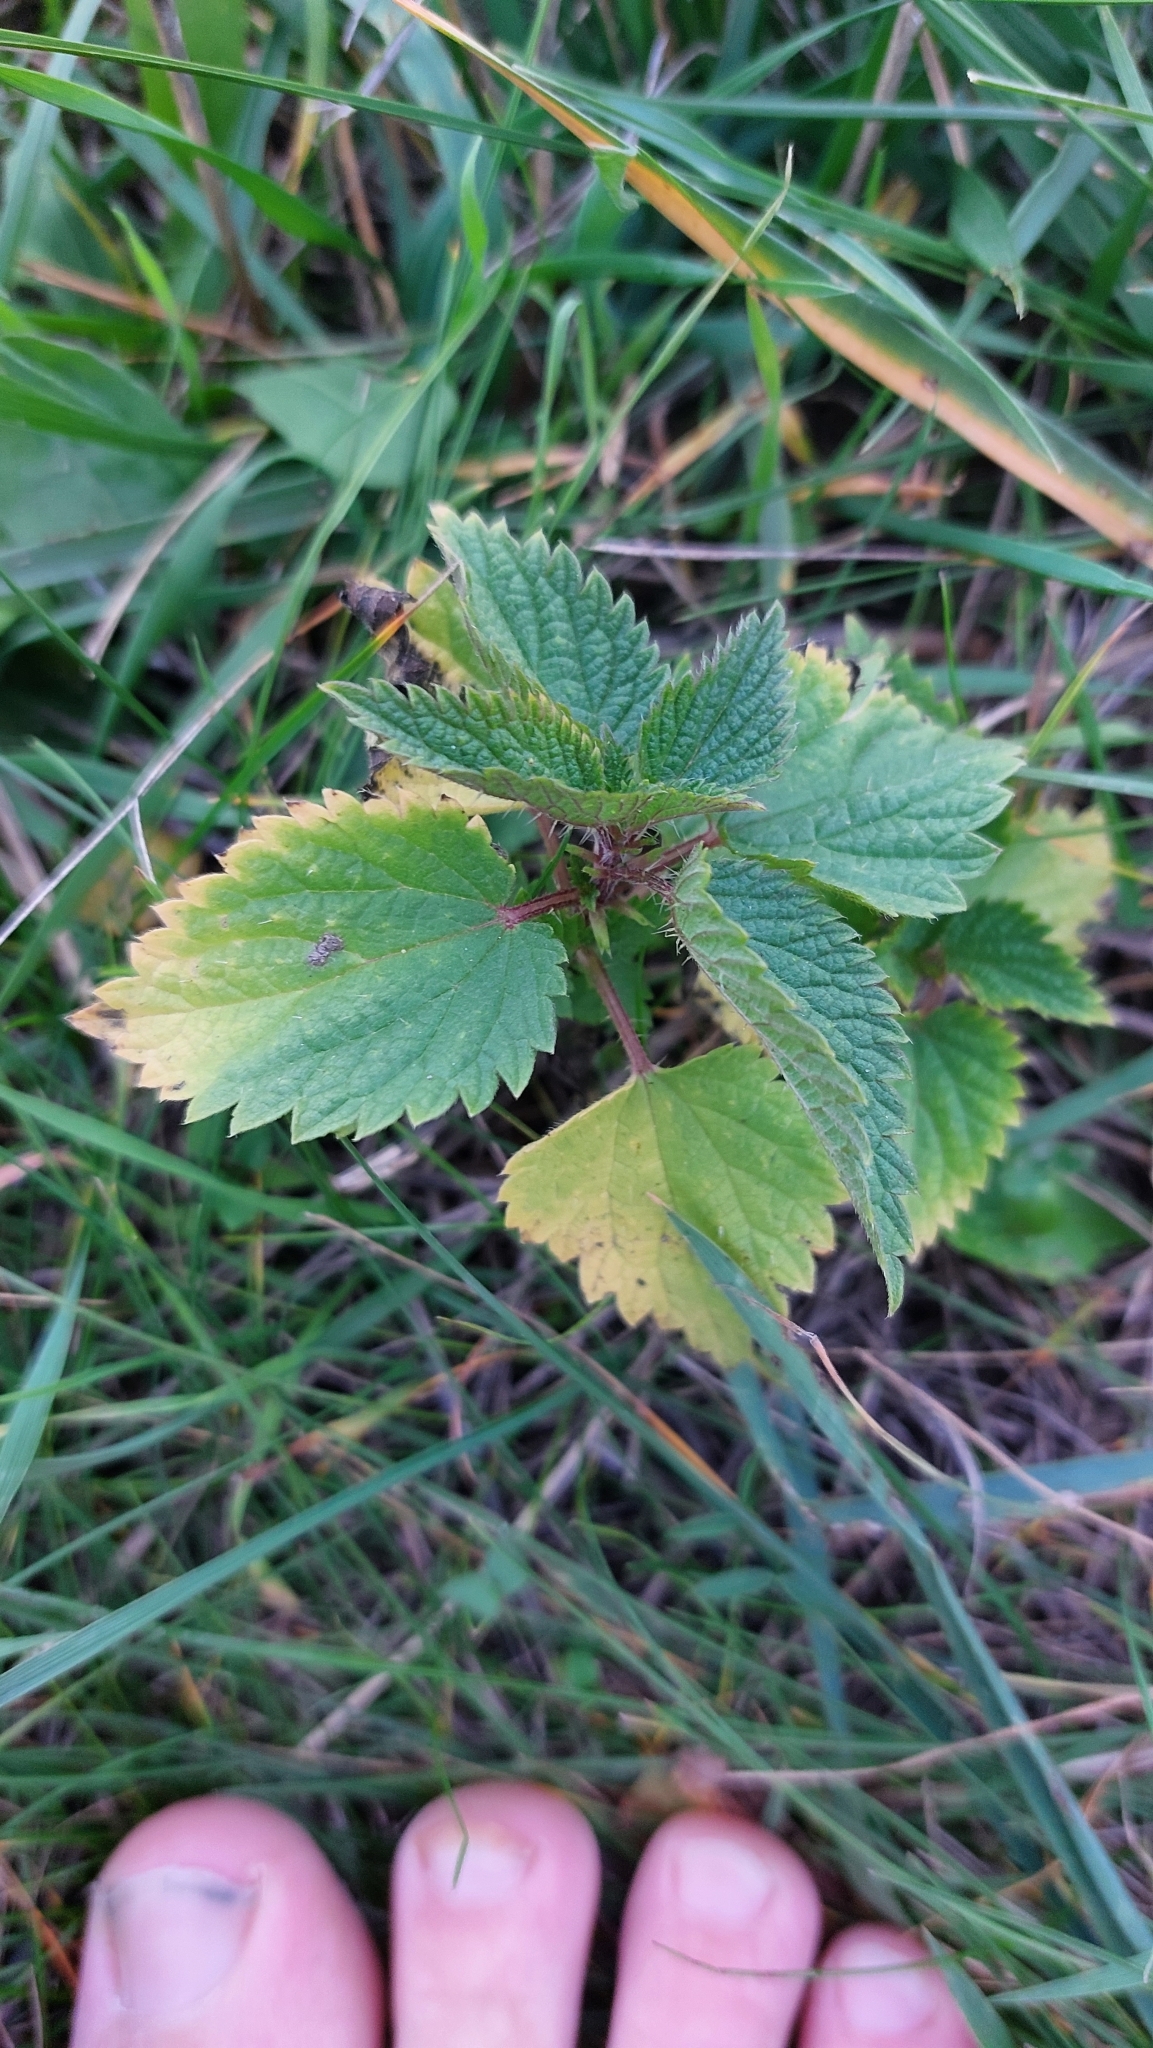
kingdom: Plantae
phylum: Tracheophyta
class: Magnoliopsida
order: Rosales
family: Urticaceae
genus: Urtica
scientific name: Urtica dioica
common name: Common nettle
